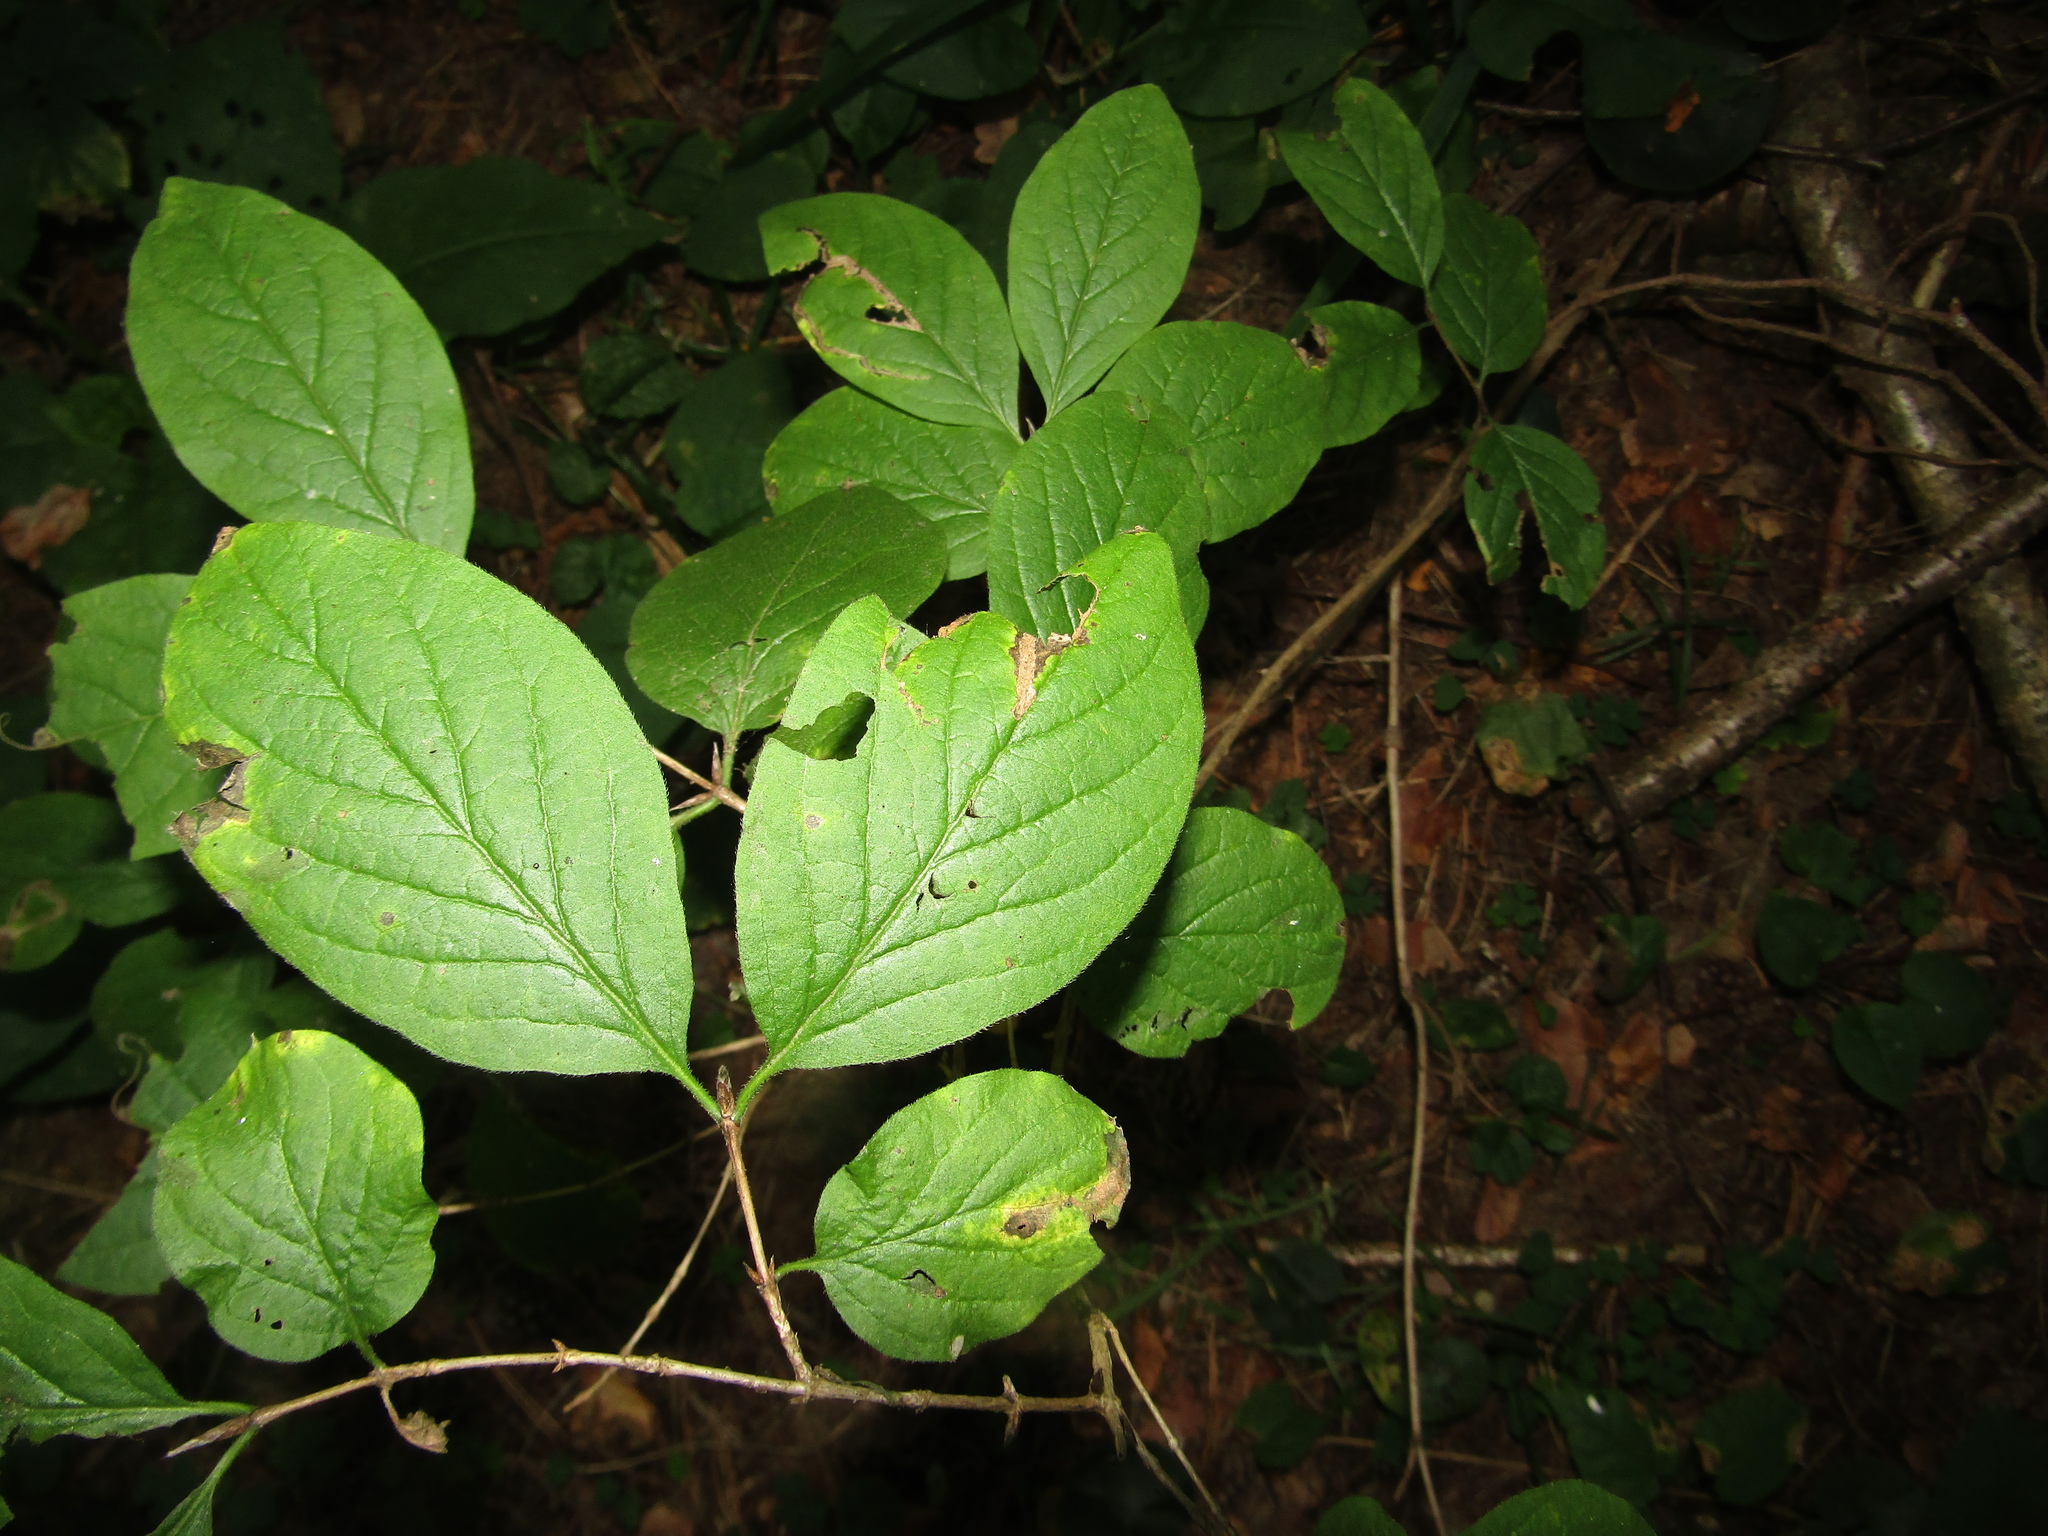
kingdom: Plantae
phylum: Tracheophyta
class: Magnoliopsida
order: Dipsacales
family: Caprifoliaceae
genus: Lonicera
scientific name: Lonicera xylosteum
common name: Fly honeysuckle
